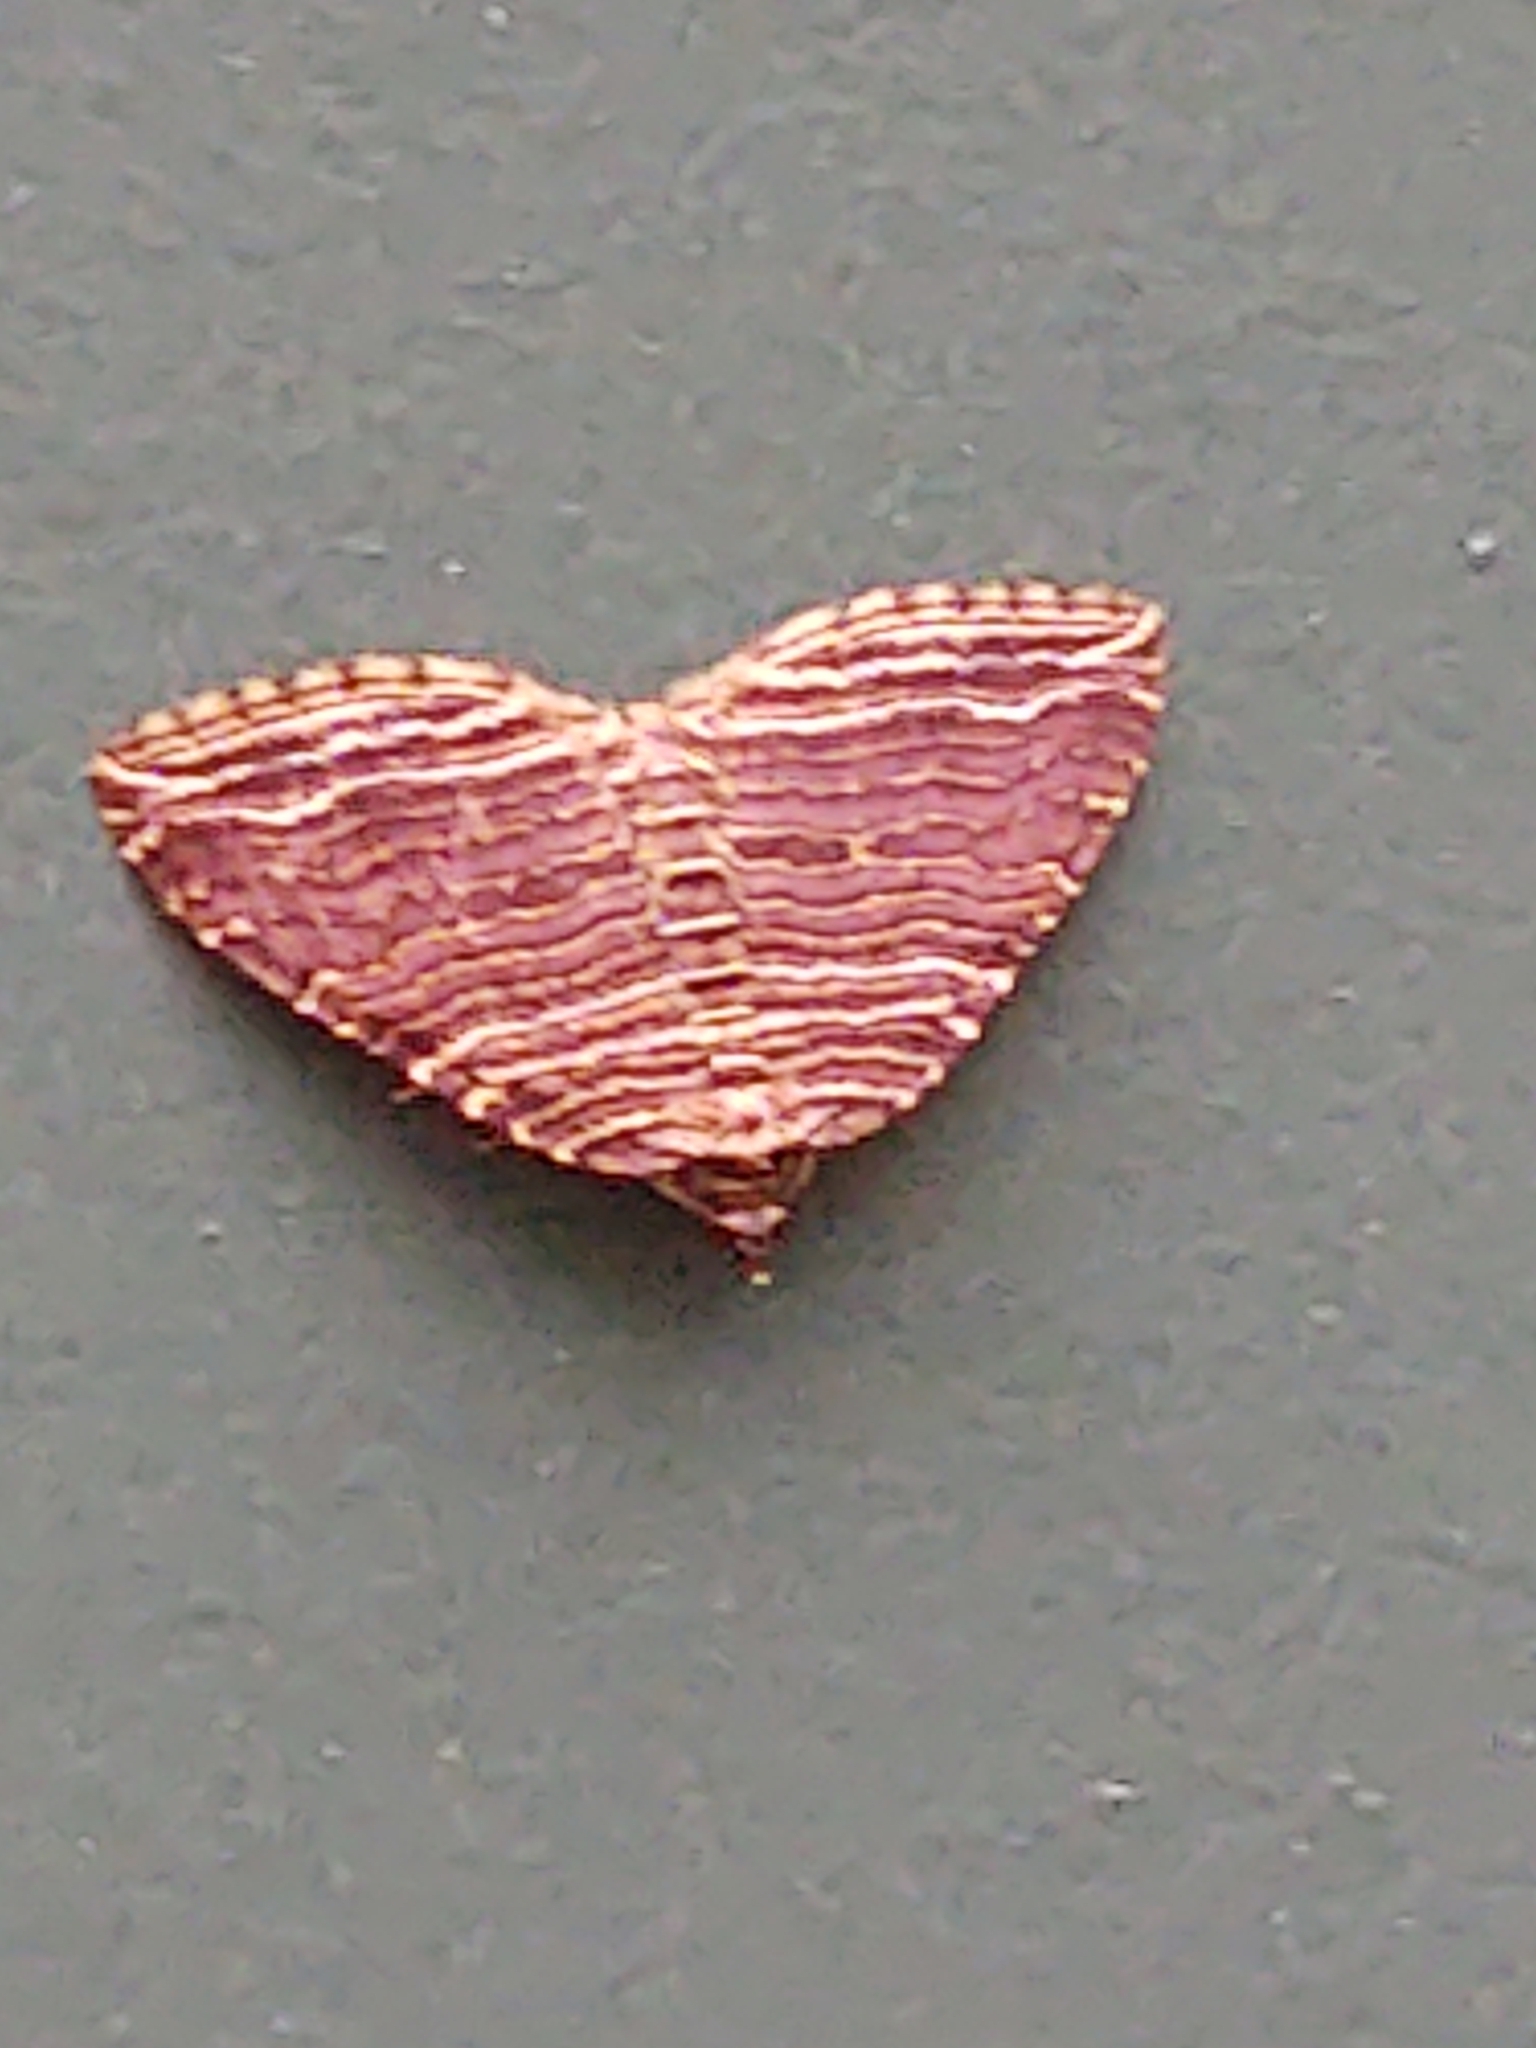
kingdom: Animalia
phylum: Arthropoda
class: Insecta
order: Lepidoptera
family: Geometridae
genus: Anticlea
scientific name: Anticlea multiferata
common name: Many-lined carpet
